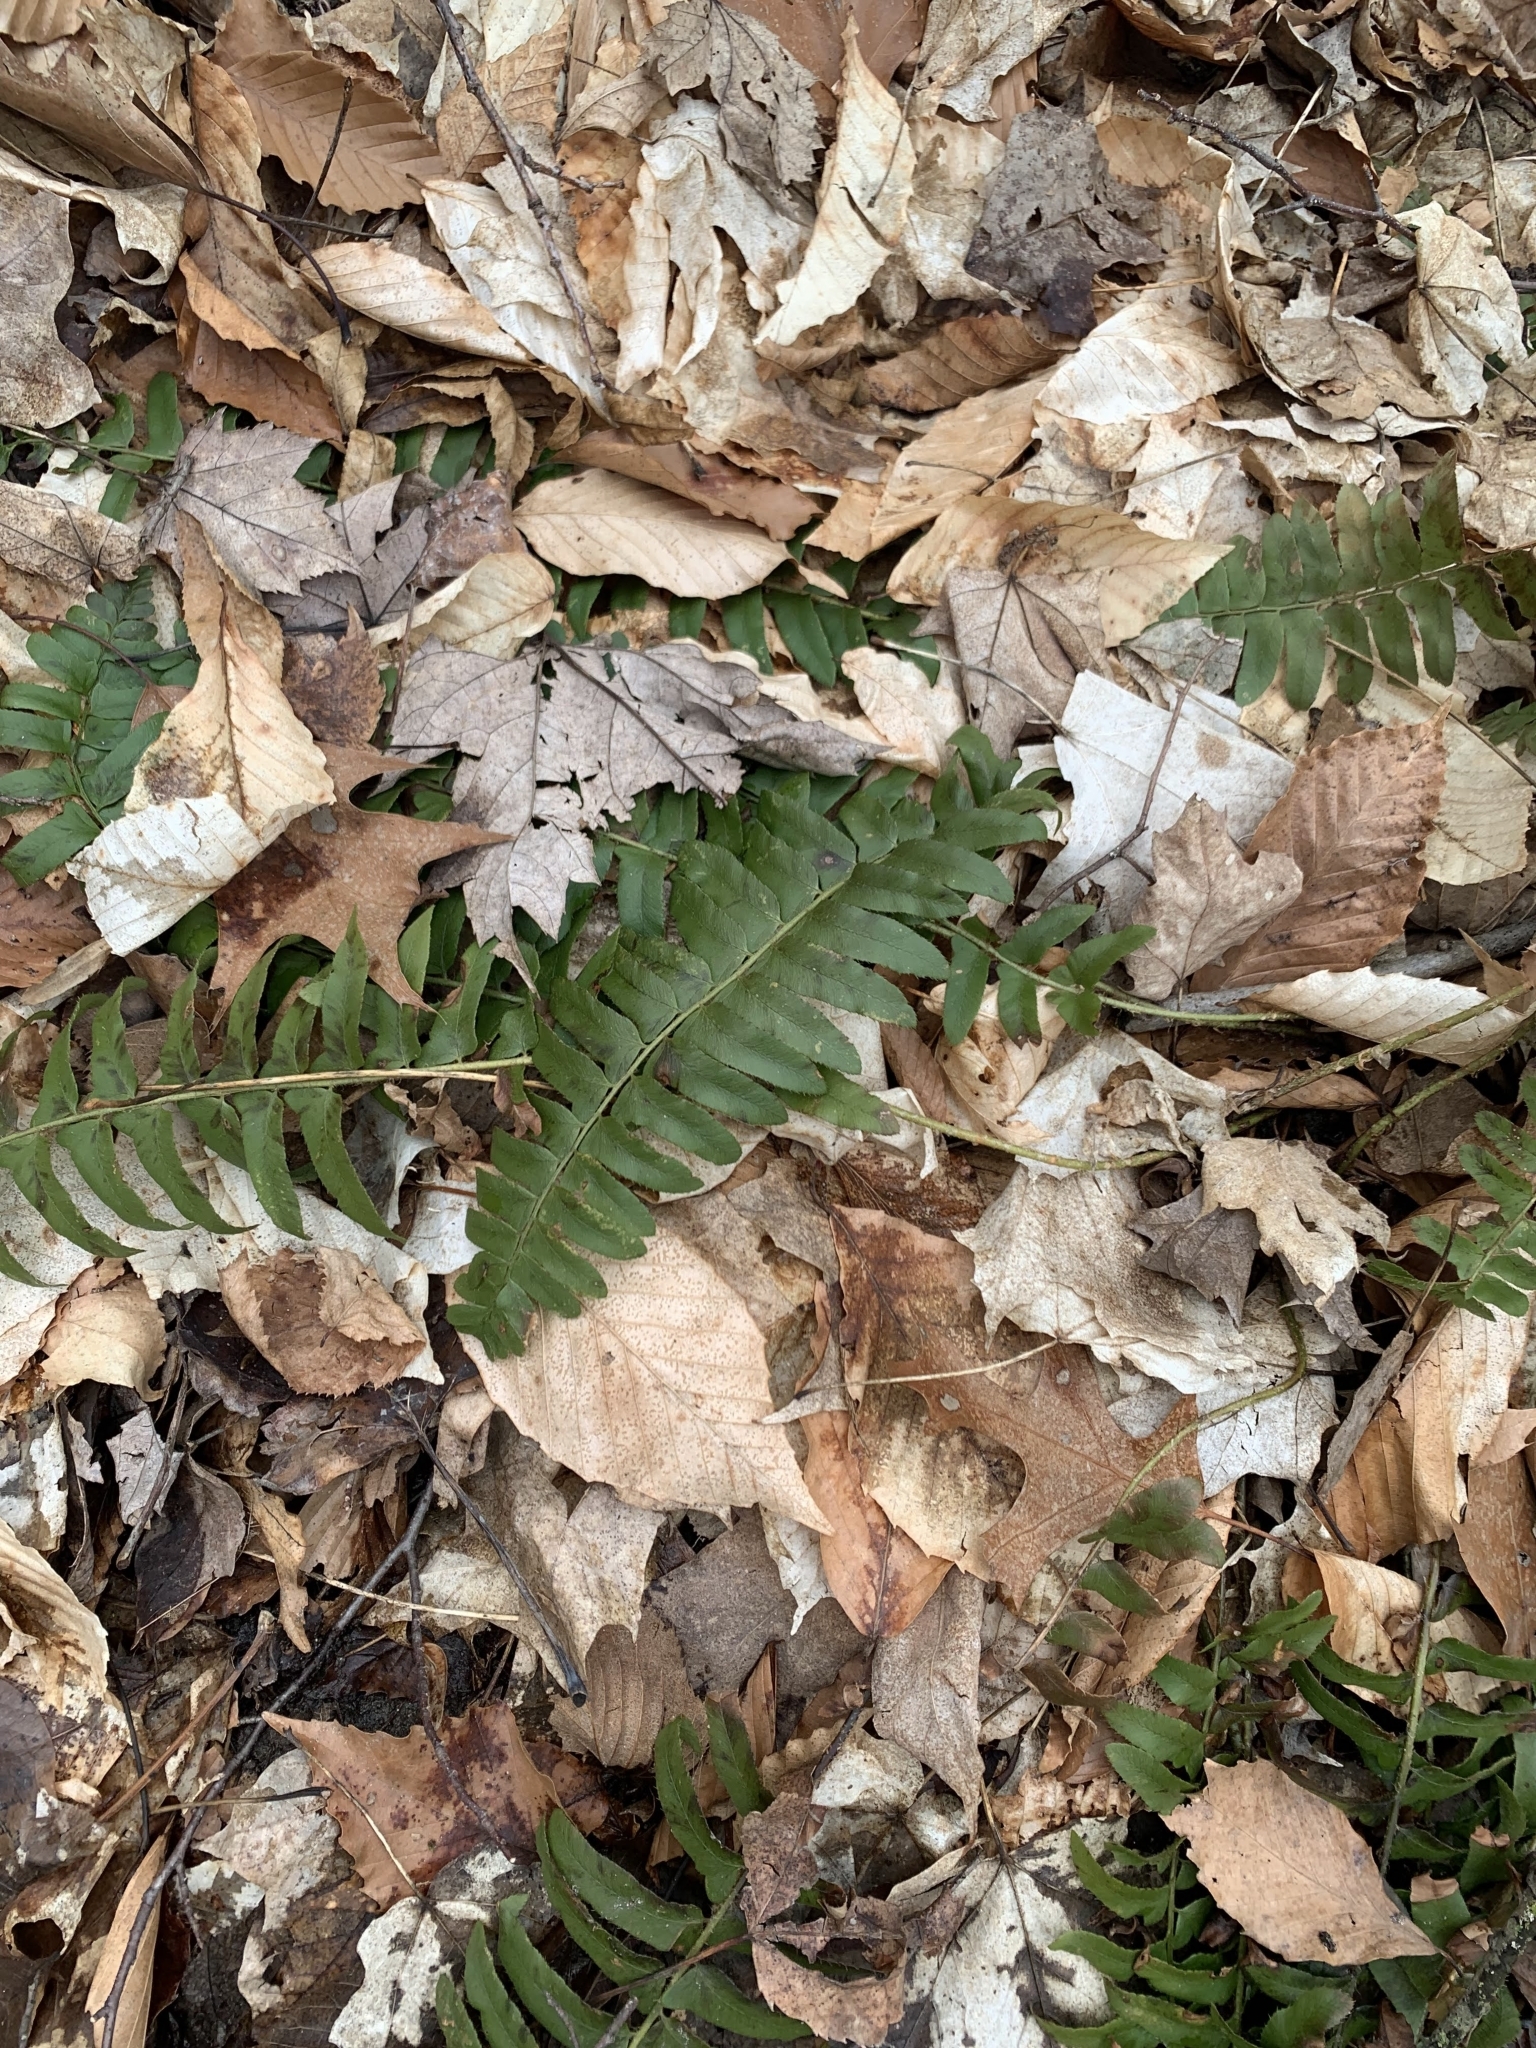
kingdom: Plantae
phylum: Tracheophyta
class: Polypodiopsida
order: Polypodiales
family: Dryopteridaceae
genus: Polystichum
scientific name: Polystichum acrostichoides
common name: Christmas fern
